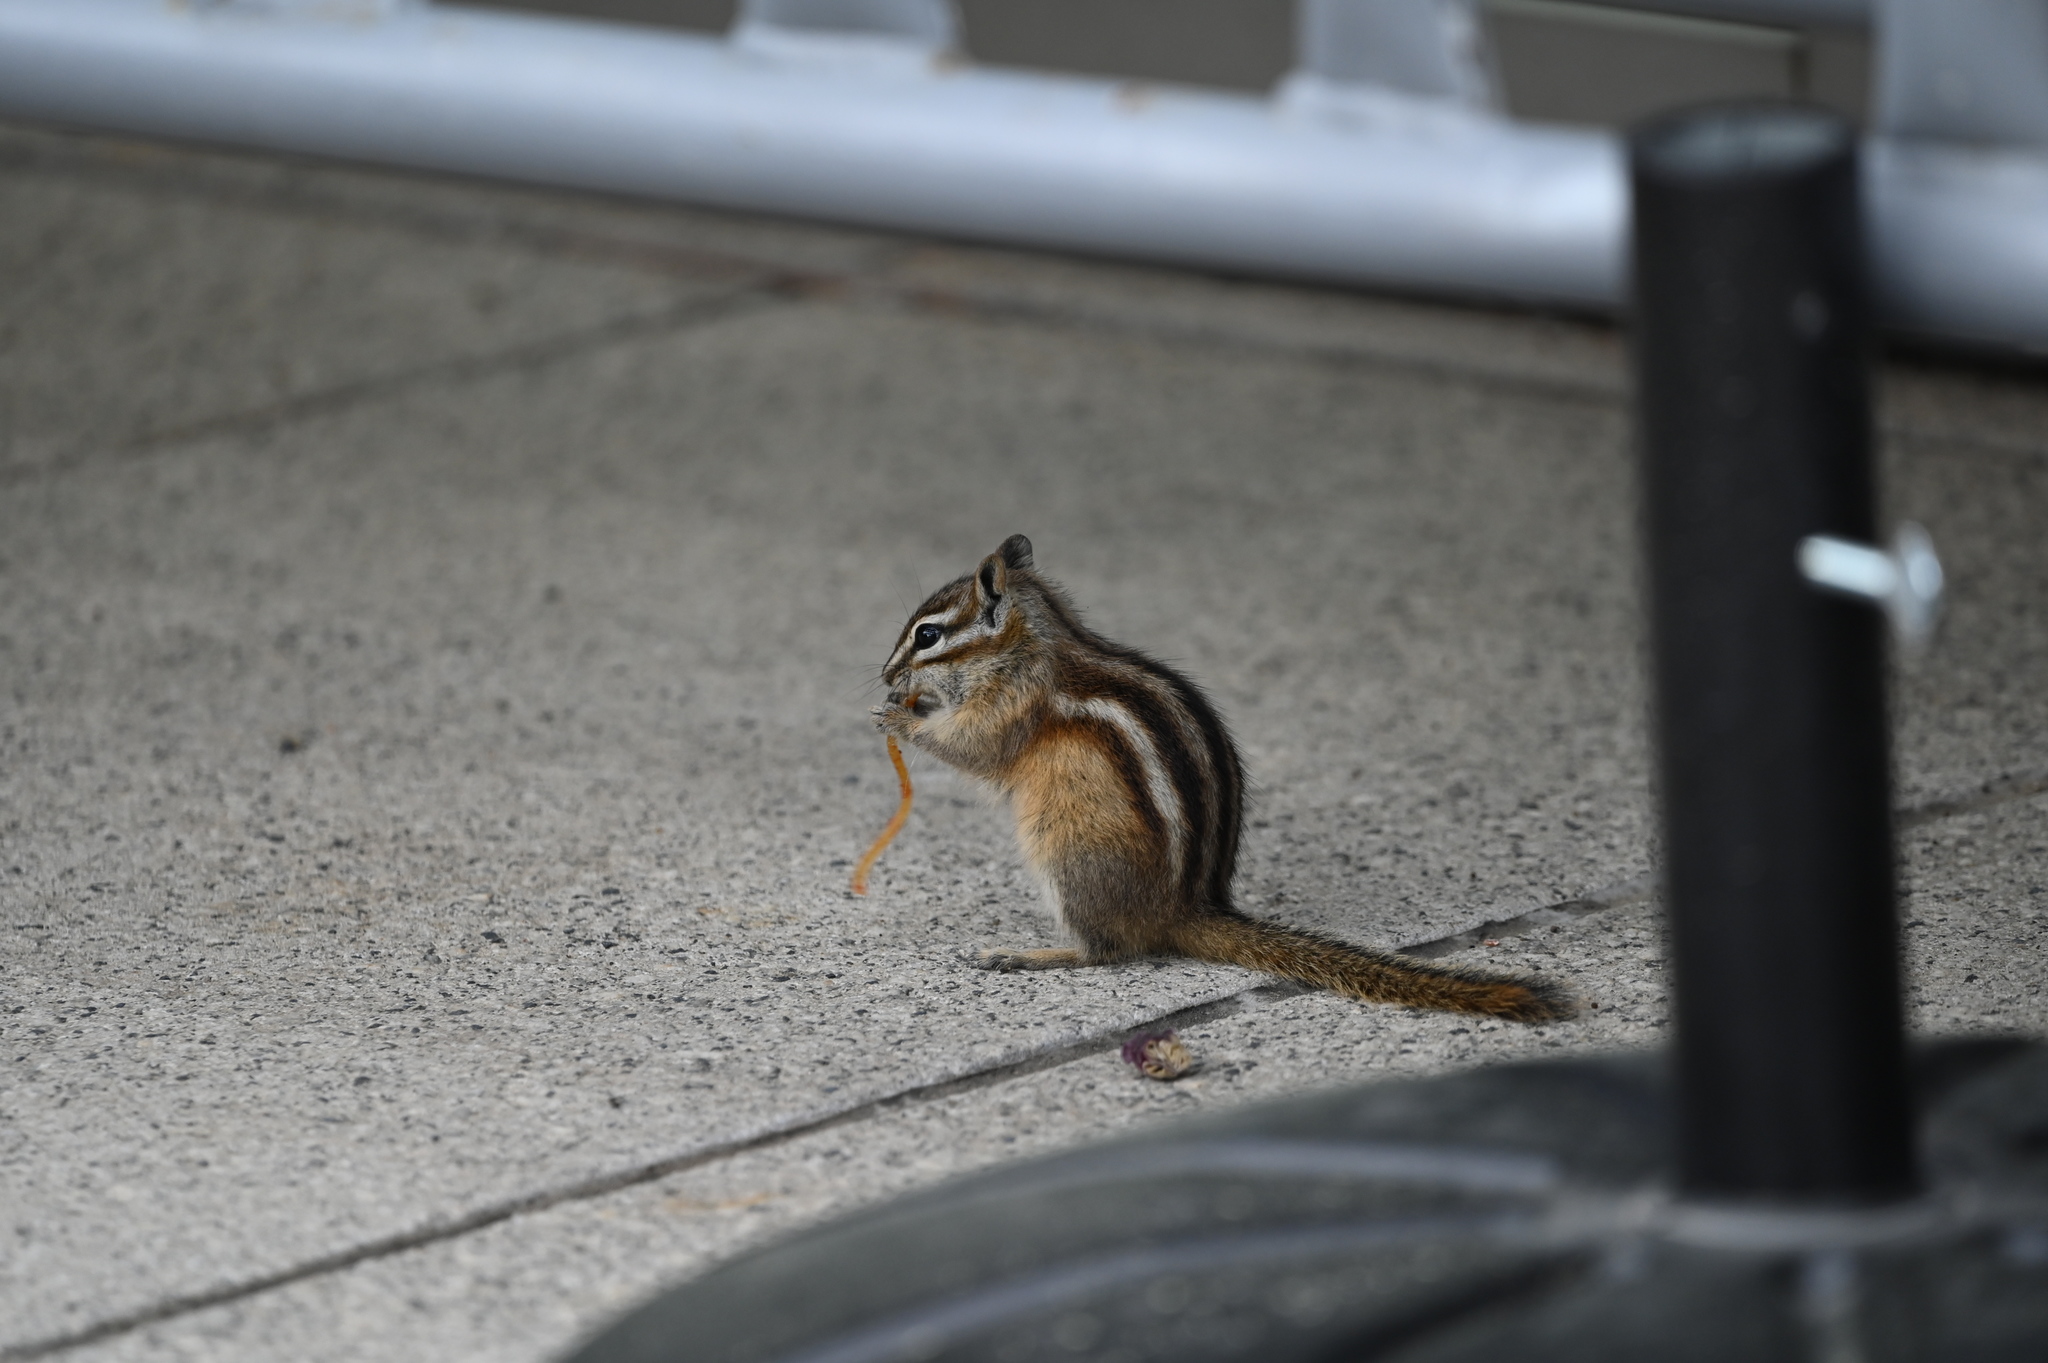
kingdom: Animalia
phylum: Chordata
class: Mammalia
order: Rodentia
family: Sciuridae
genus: Tamias
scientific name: Tamias minimus
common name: Least chipmunk
